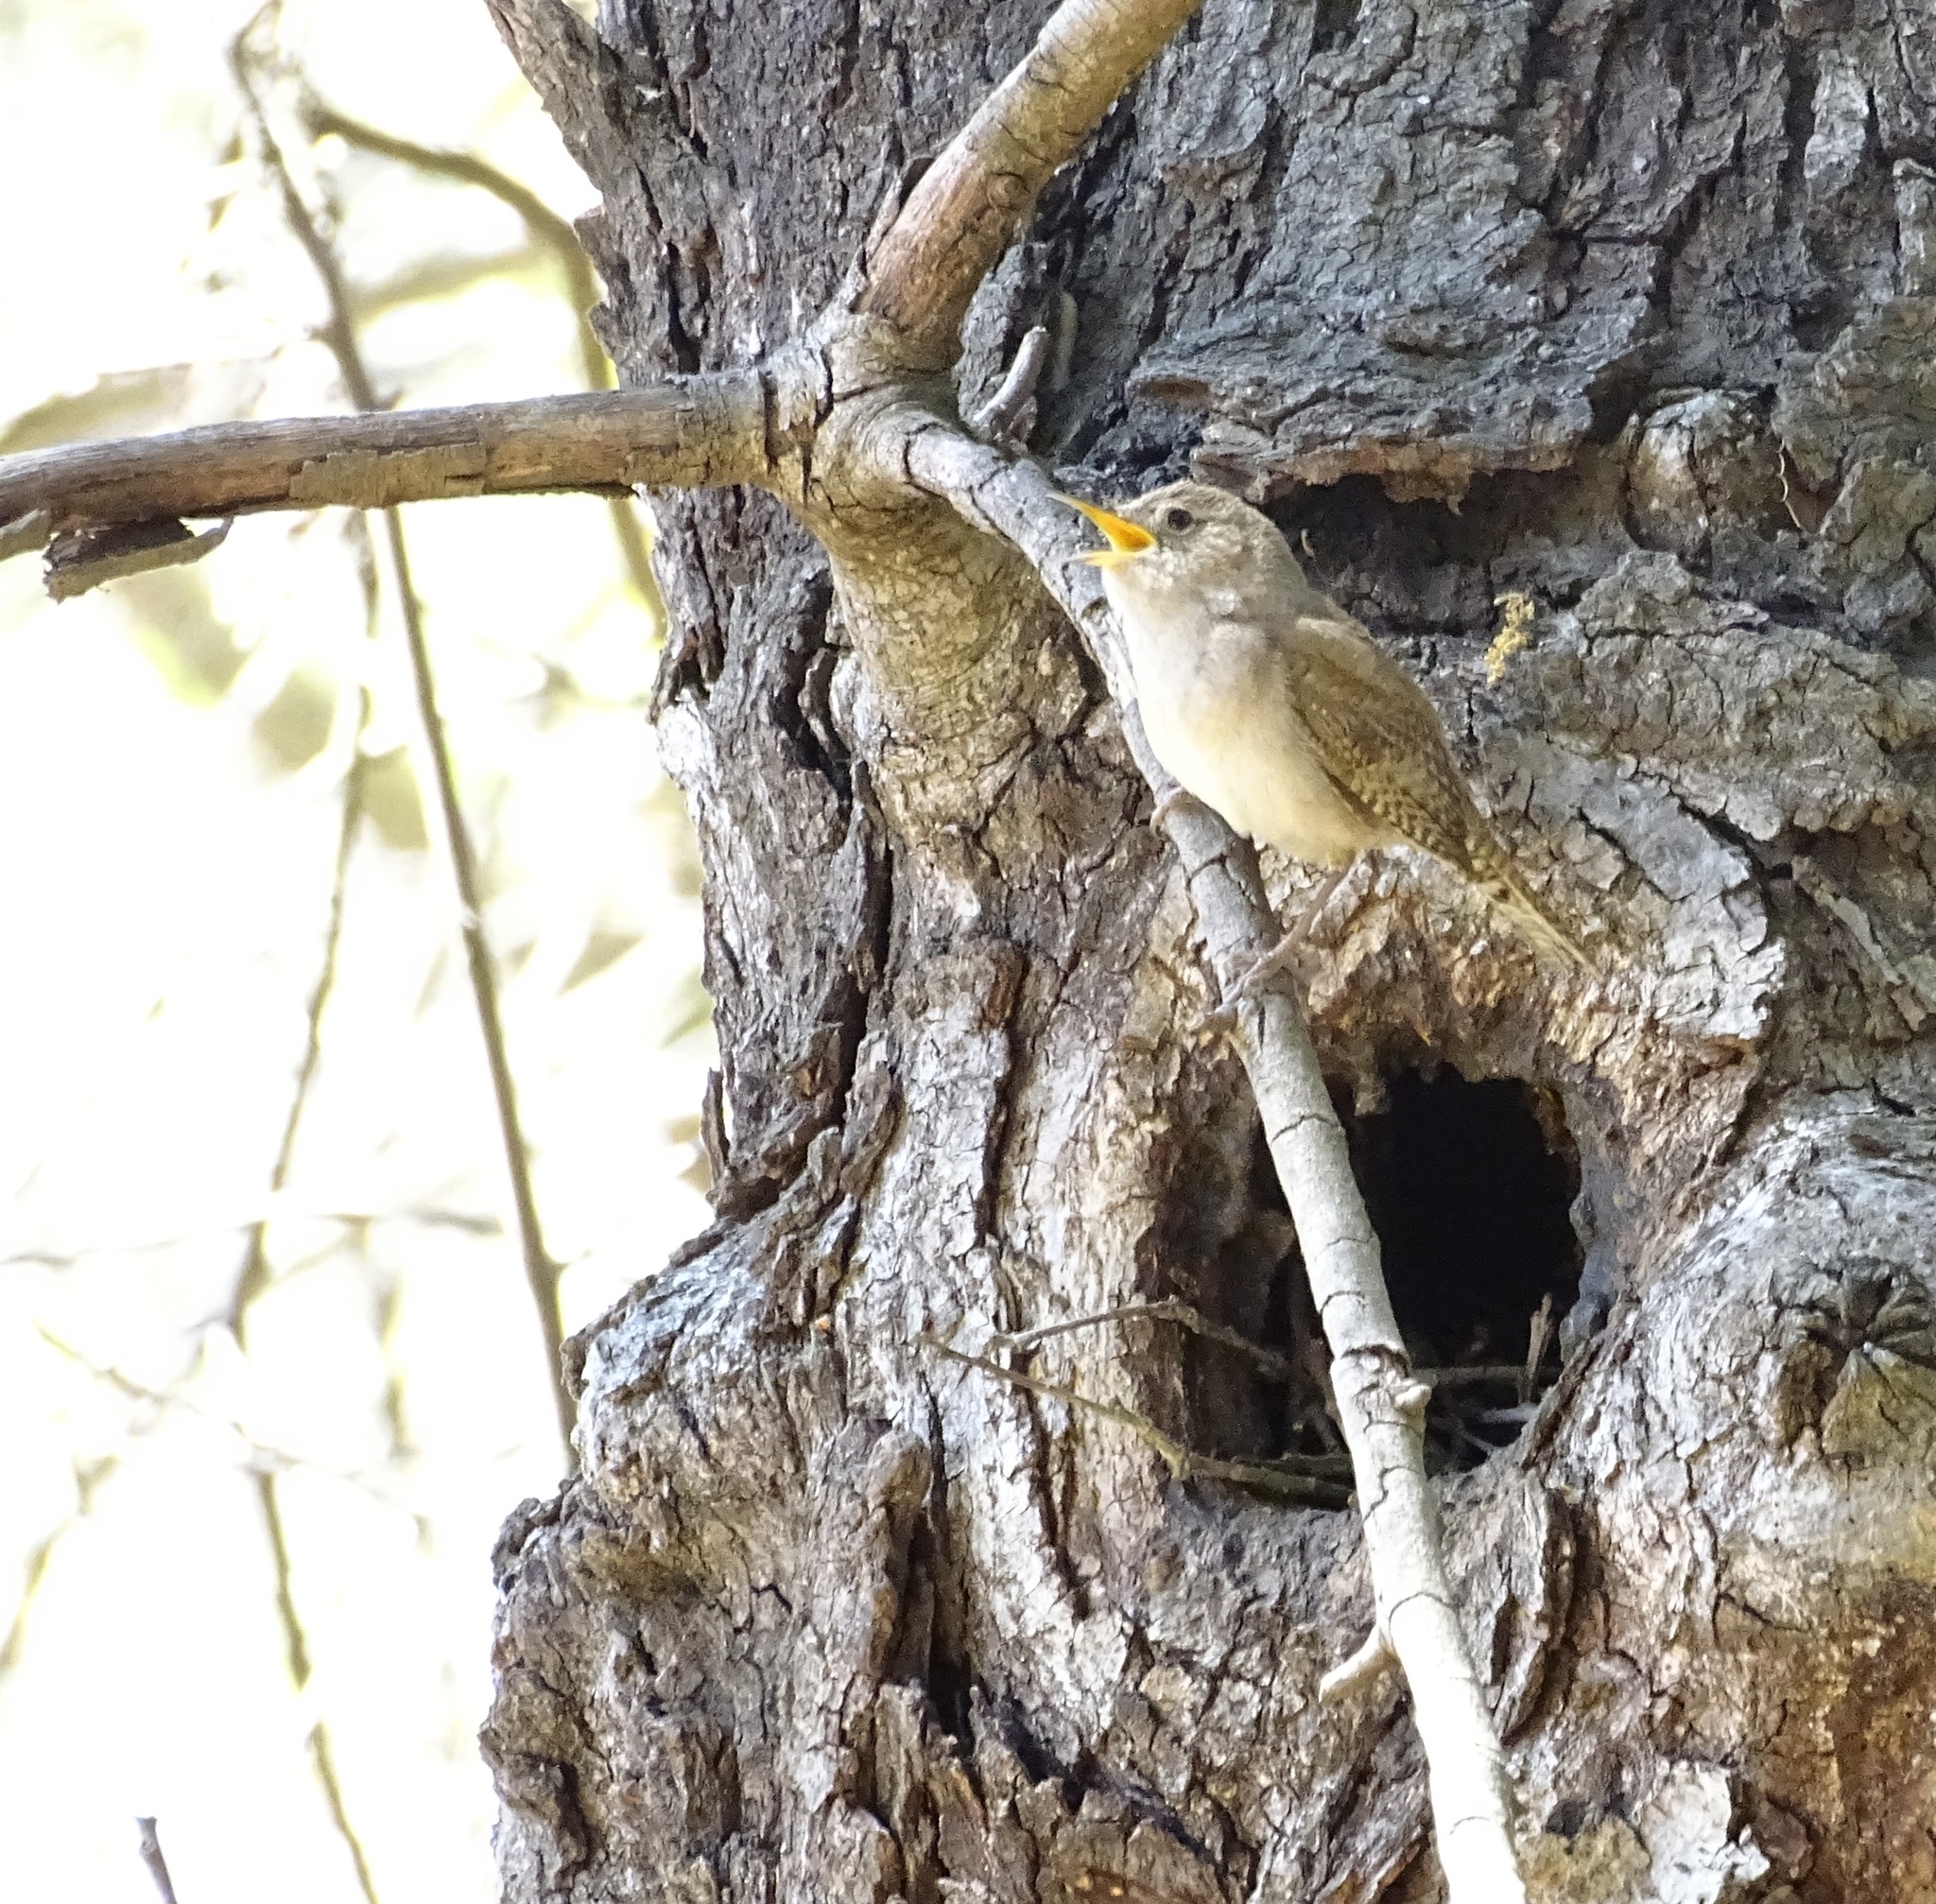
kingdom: Animalia
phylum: Chordata
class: Aves
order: Passeriformes
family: Troglodytidae
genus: Troglodytes
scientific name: Troglodytes aedon
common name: House wren
